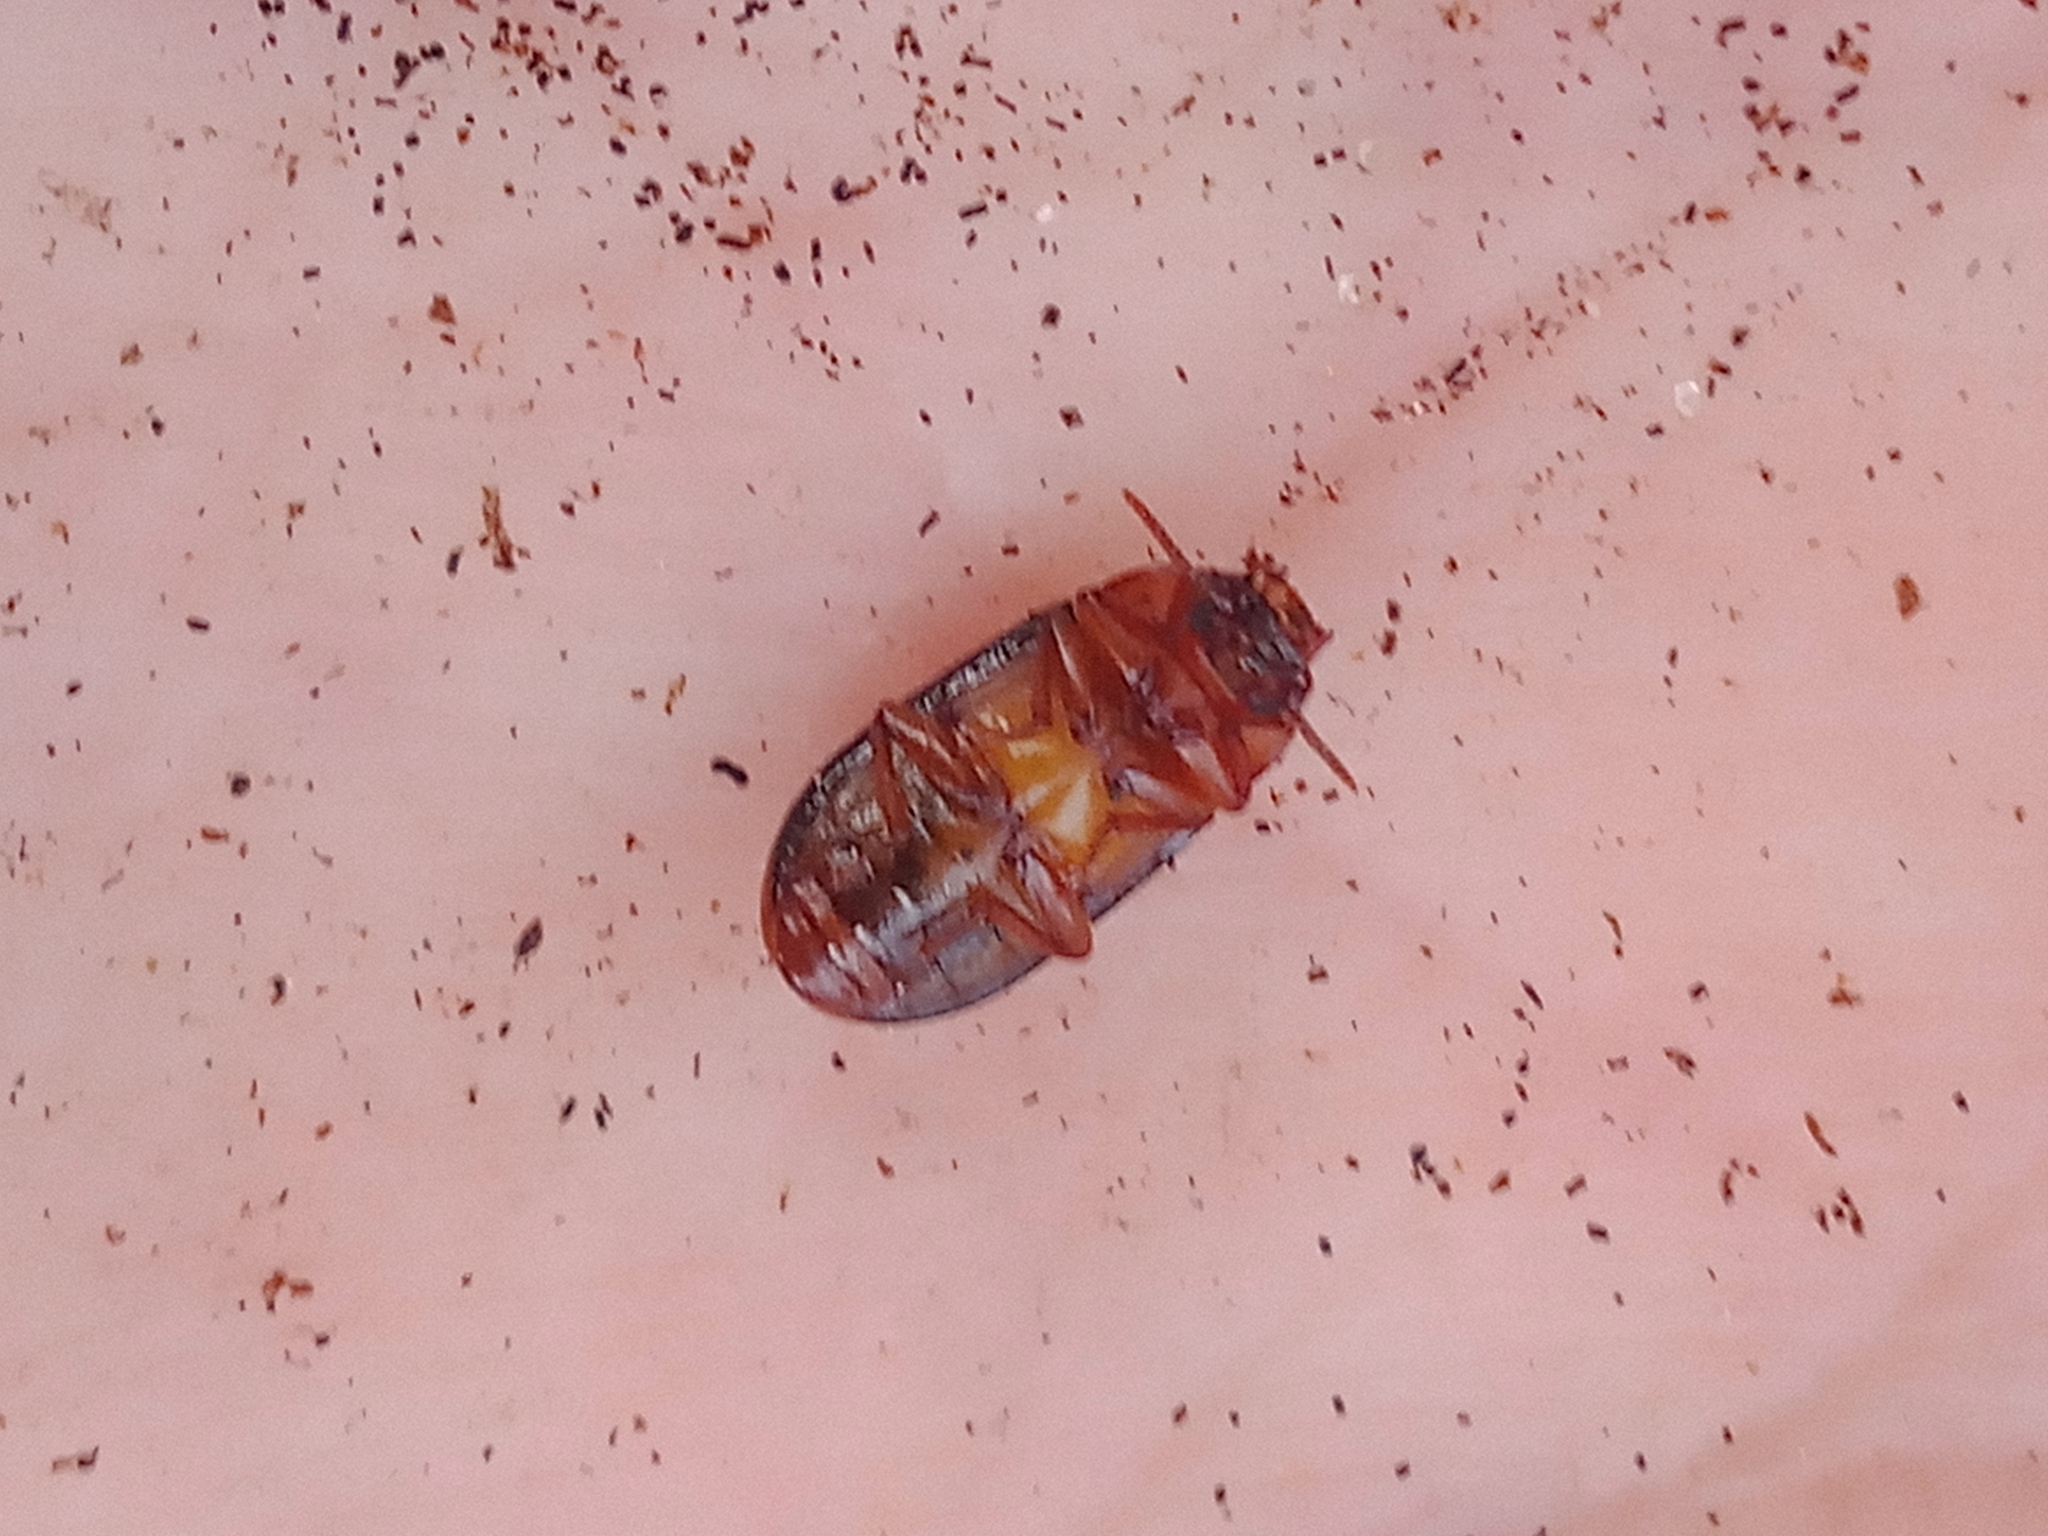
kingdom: Animalia
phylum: Arthropoda
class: Insecta
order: Coleoptera
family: Tenebrionidae
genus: Neomida
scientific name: Neomida haemorrhoidalis
